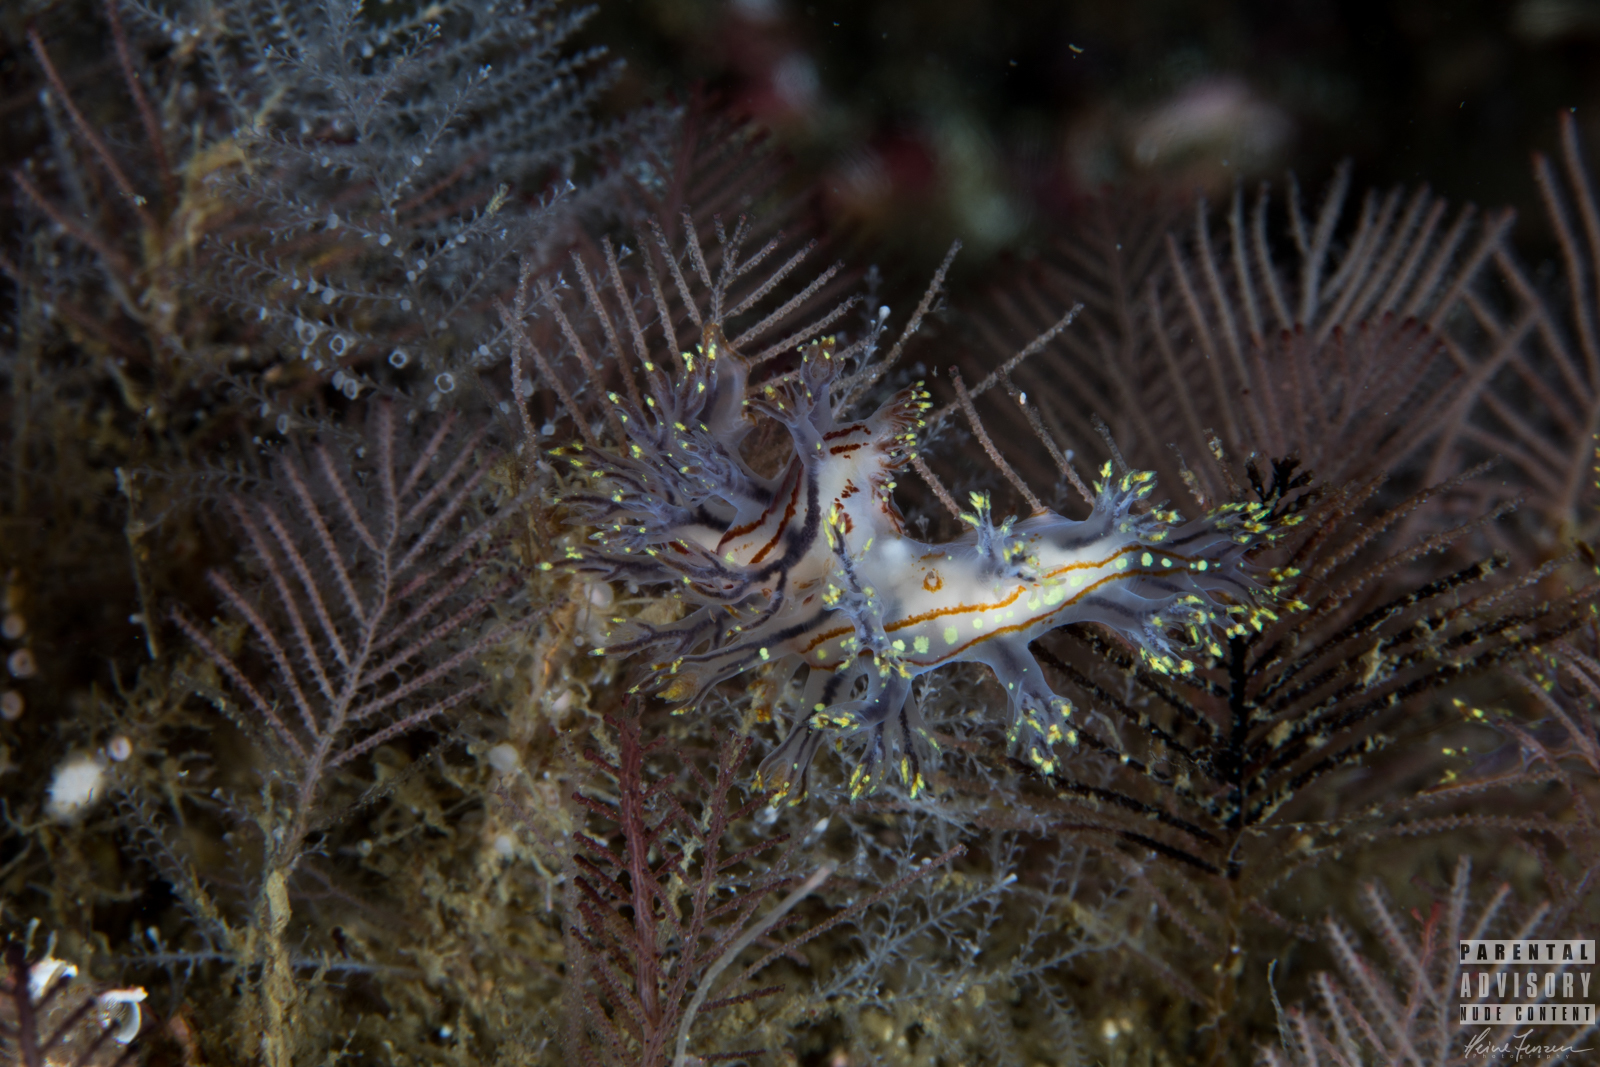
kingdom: Animalia
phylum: Mollusca
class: Gastropoda
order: Nudibranchia
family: Dendronotidae
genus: Dendronotus
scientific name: Dendronotus yrjargul
